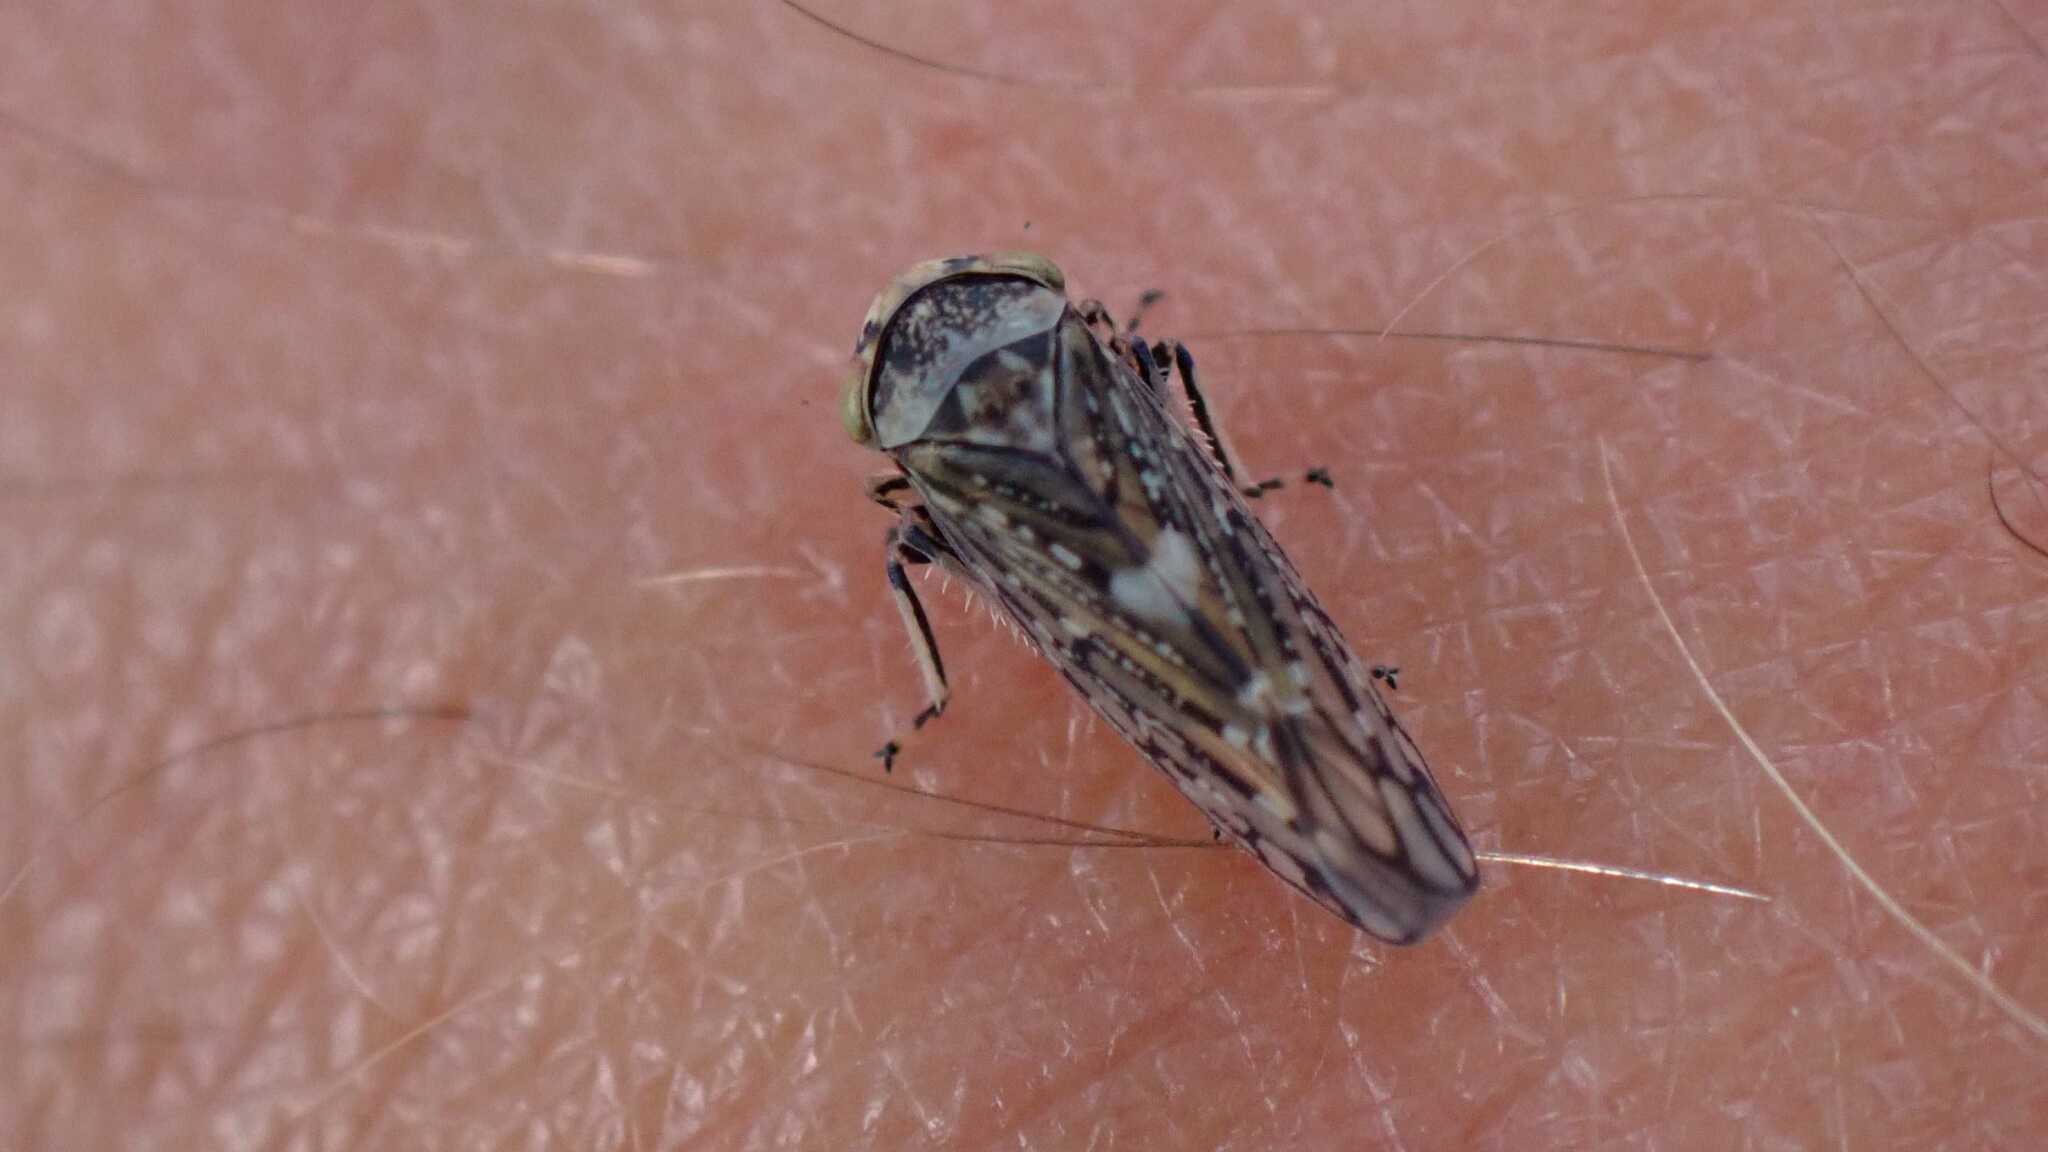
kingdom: Animalia
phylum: Arthropoda
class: Insecta
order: Hemiptera
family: Cicadellidae
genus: Acericerus
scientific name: Acericerus heydenii
